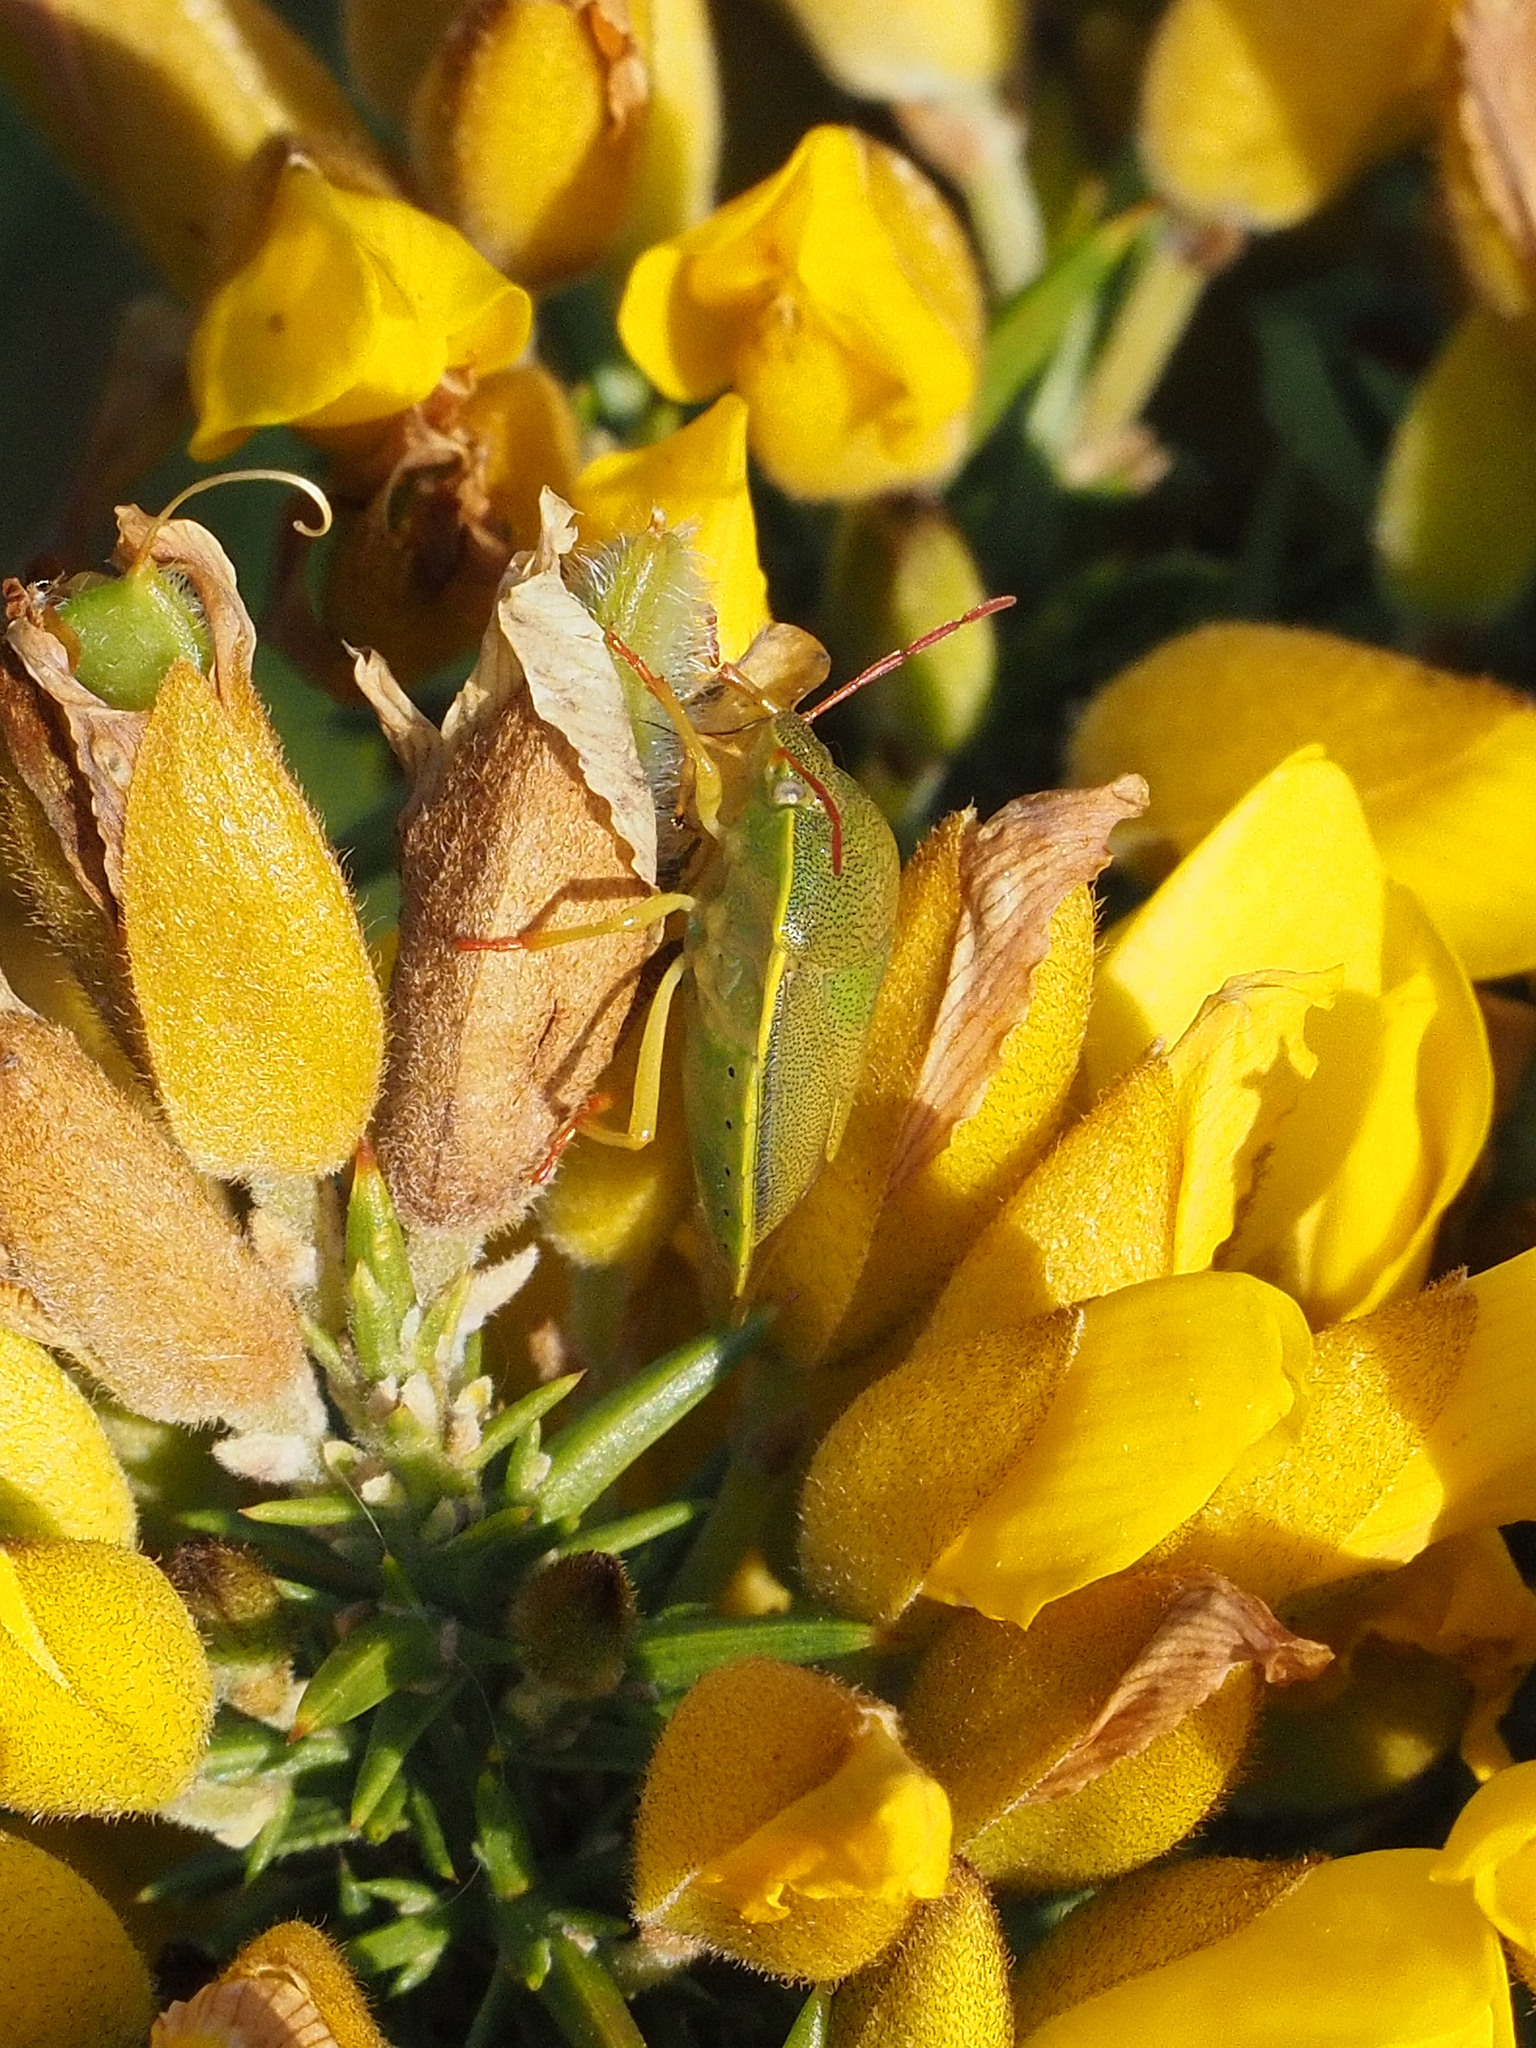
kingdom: Animalia
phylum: Arthropoda
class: Insecta
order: Hemiptera
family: Pentatomidae
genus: Piezodorus
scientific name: Piezodorus lituratus
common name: Stink bug
